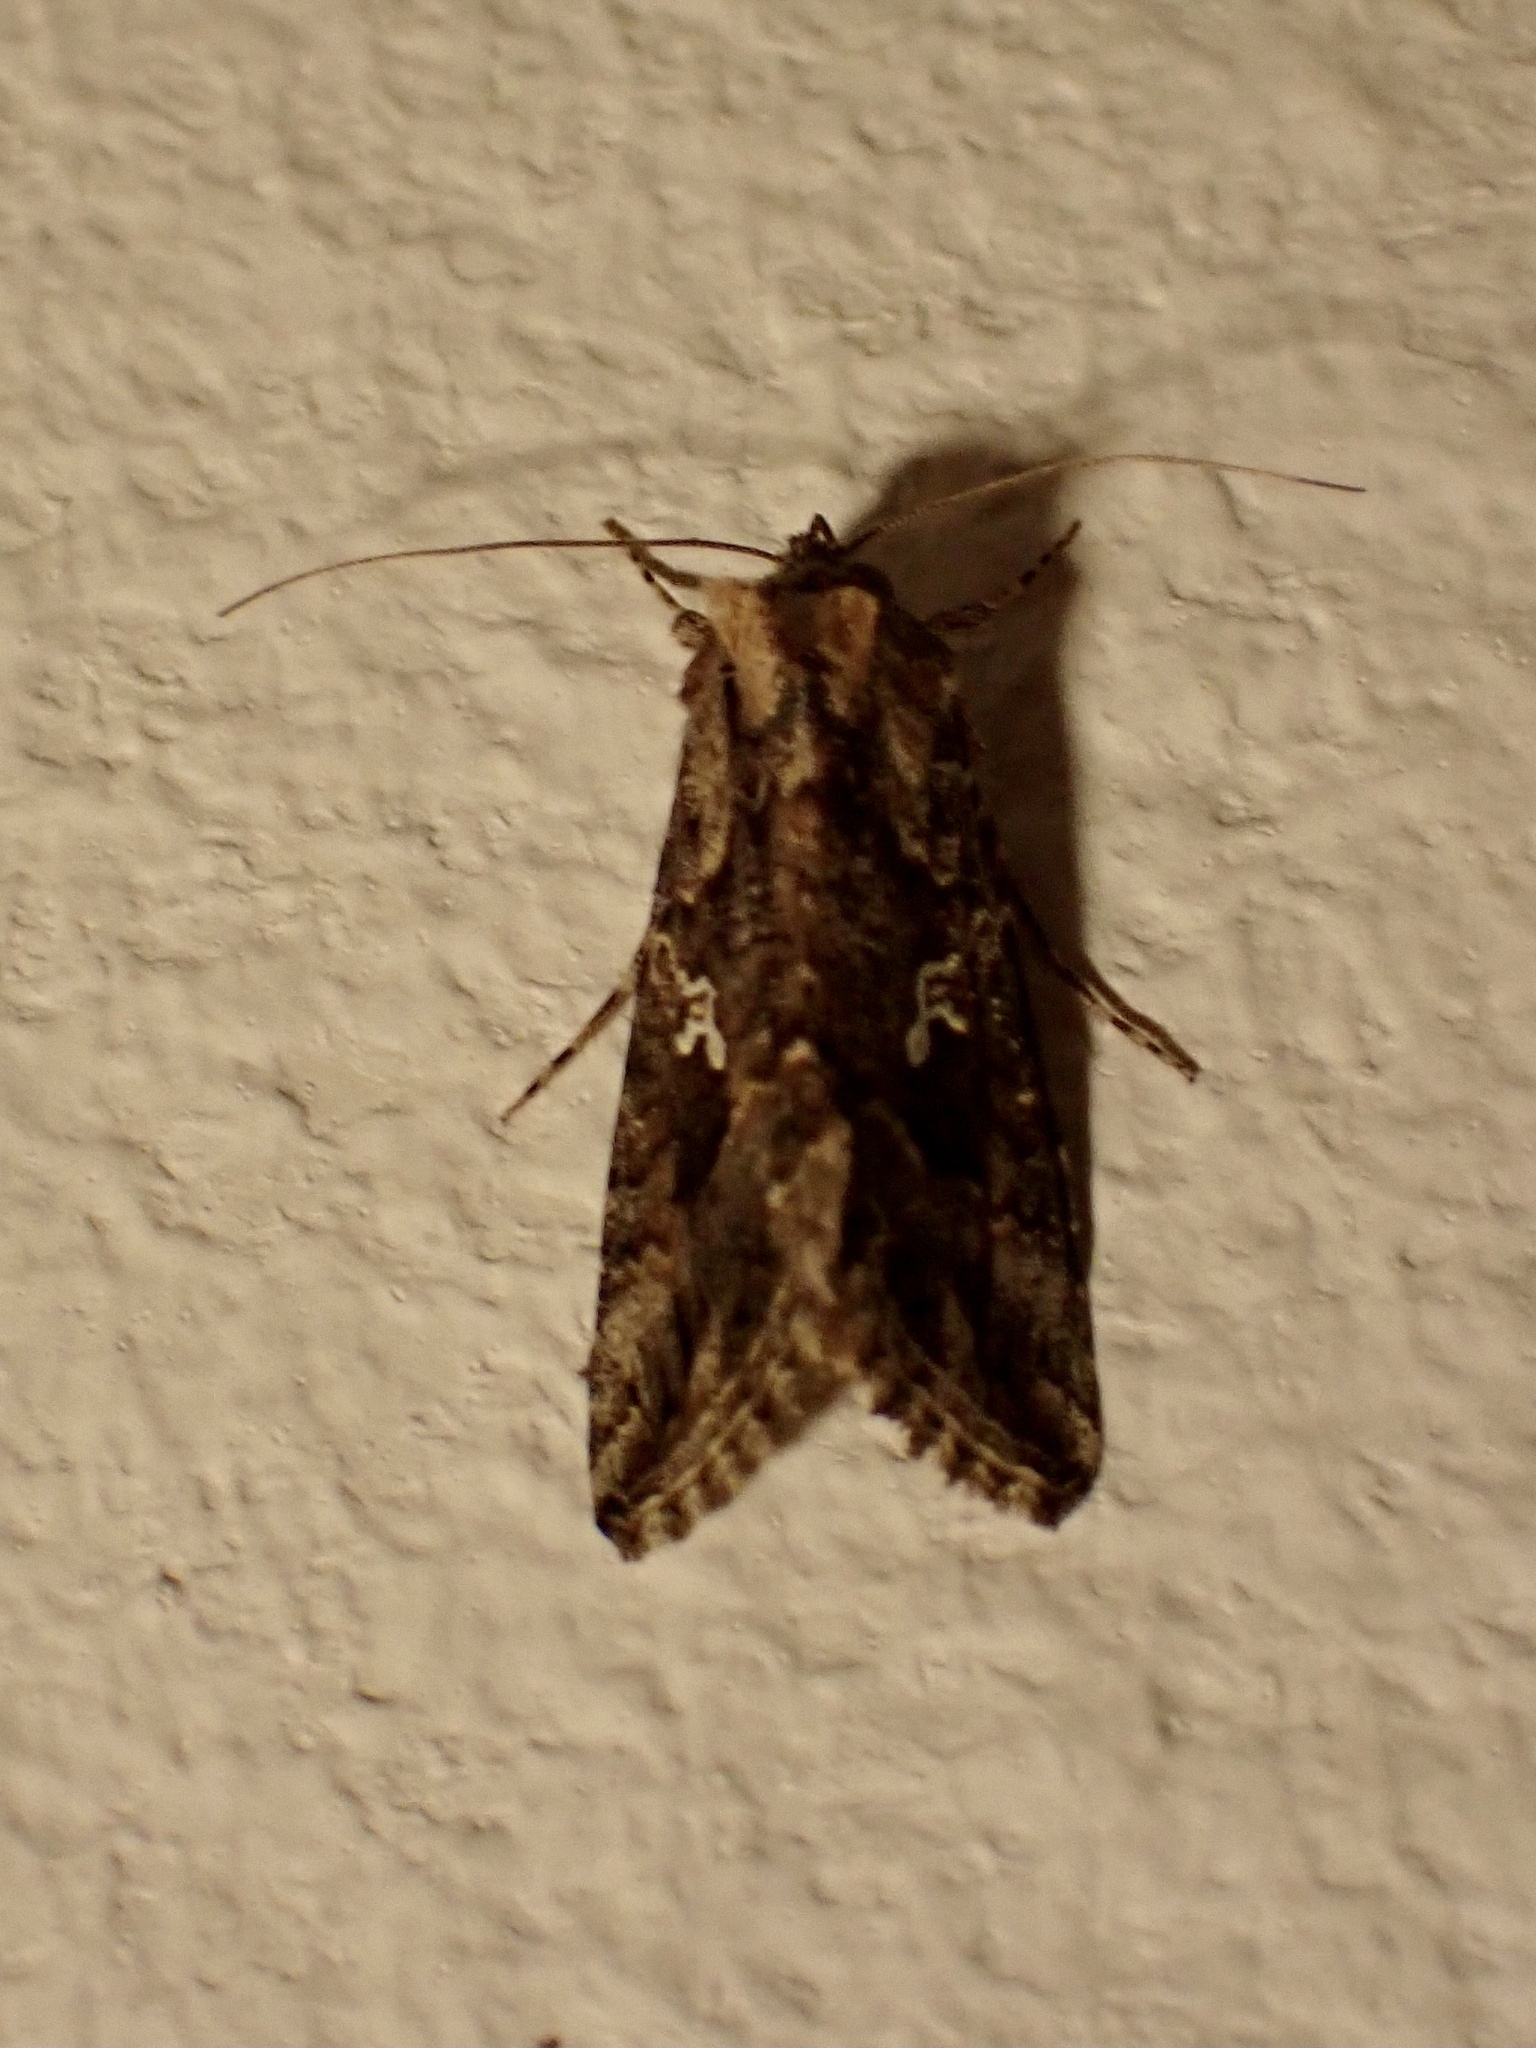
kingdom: Animalia
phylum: Arthropoda
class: Insecta
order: Lepidoptera
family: Noctuidae
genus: Trichoplusia
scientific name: Trichoplusia ni
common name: Ni moth
